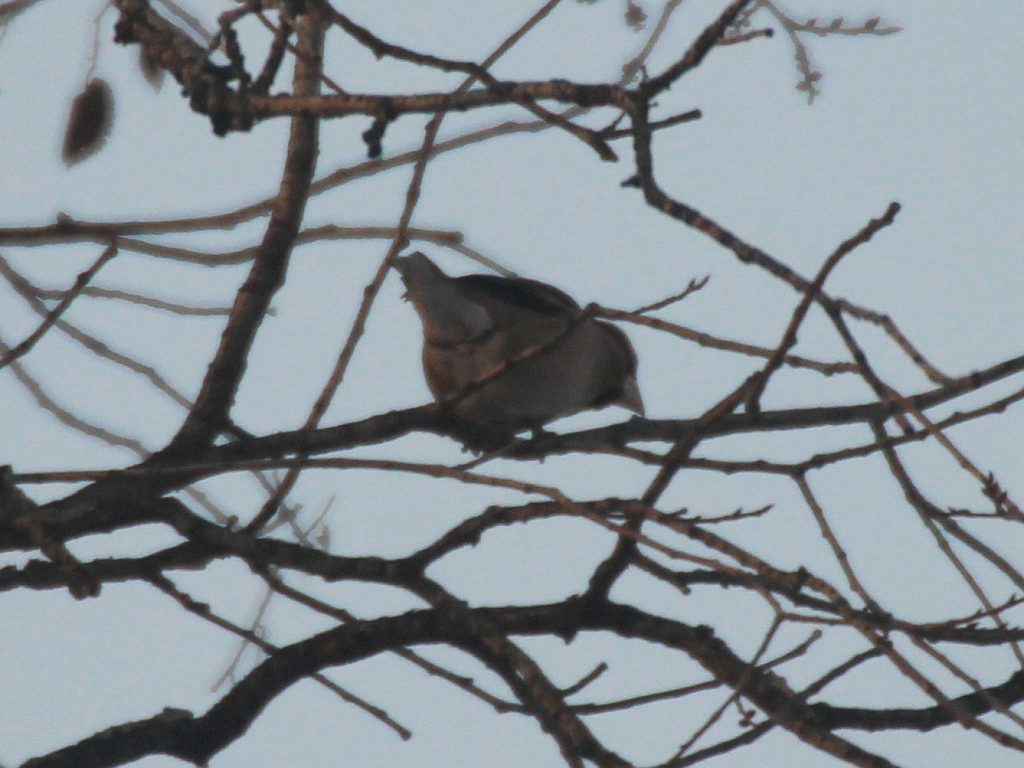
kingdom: Animalia
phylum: Chordata
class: Aves
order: Passeriformes
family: Fringillidae
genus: Coccothraustes
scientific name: Coccothraustes coccothraustes
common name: Hawfinch
